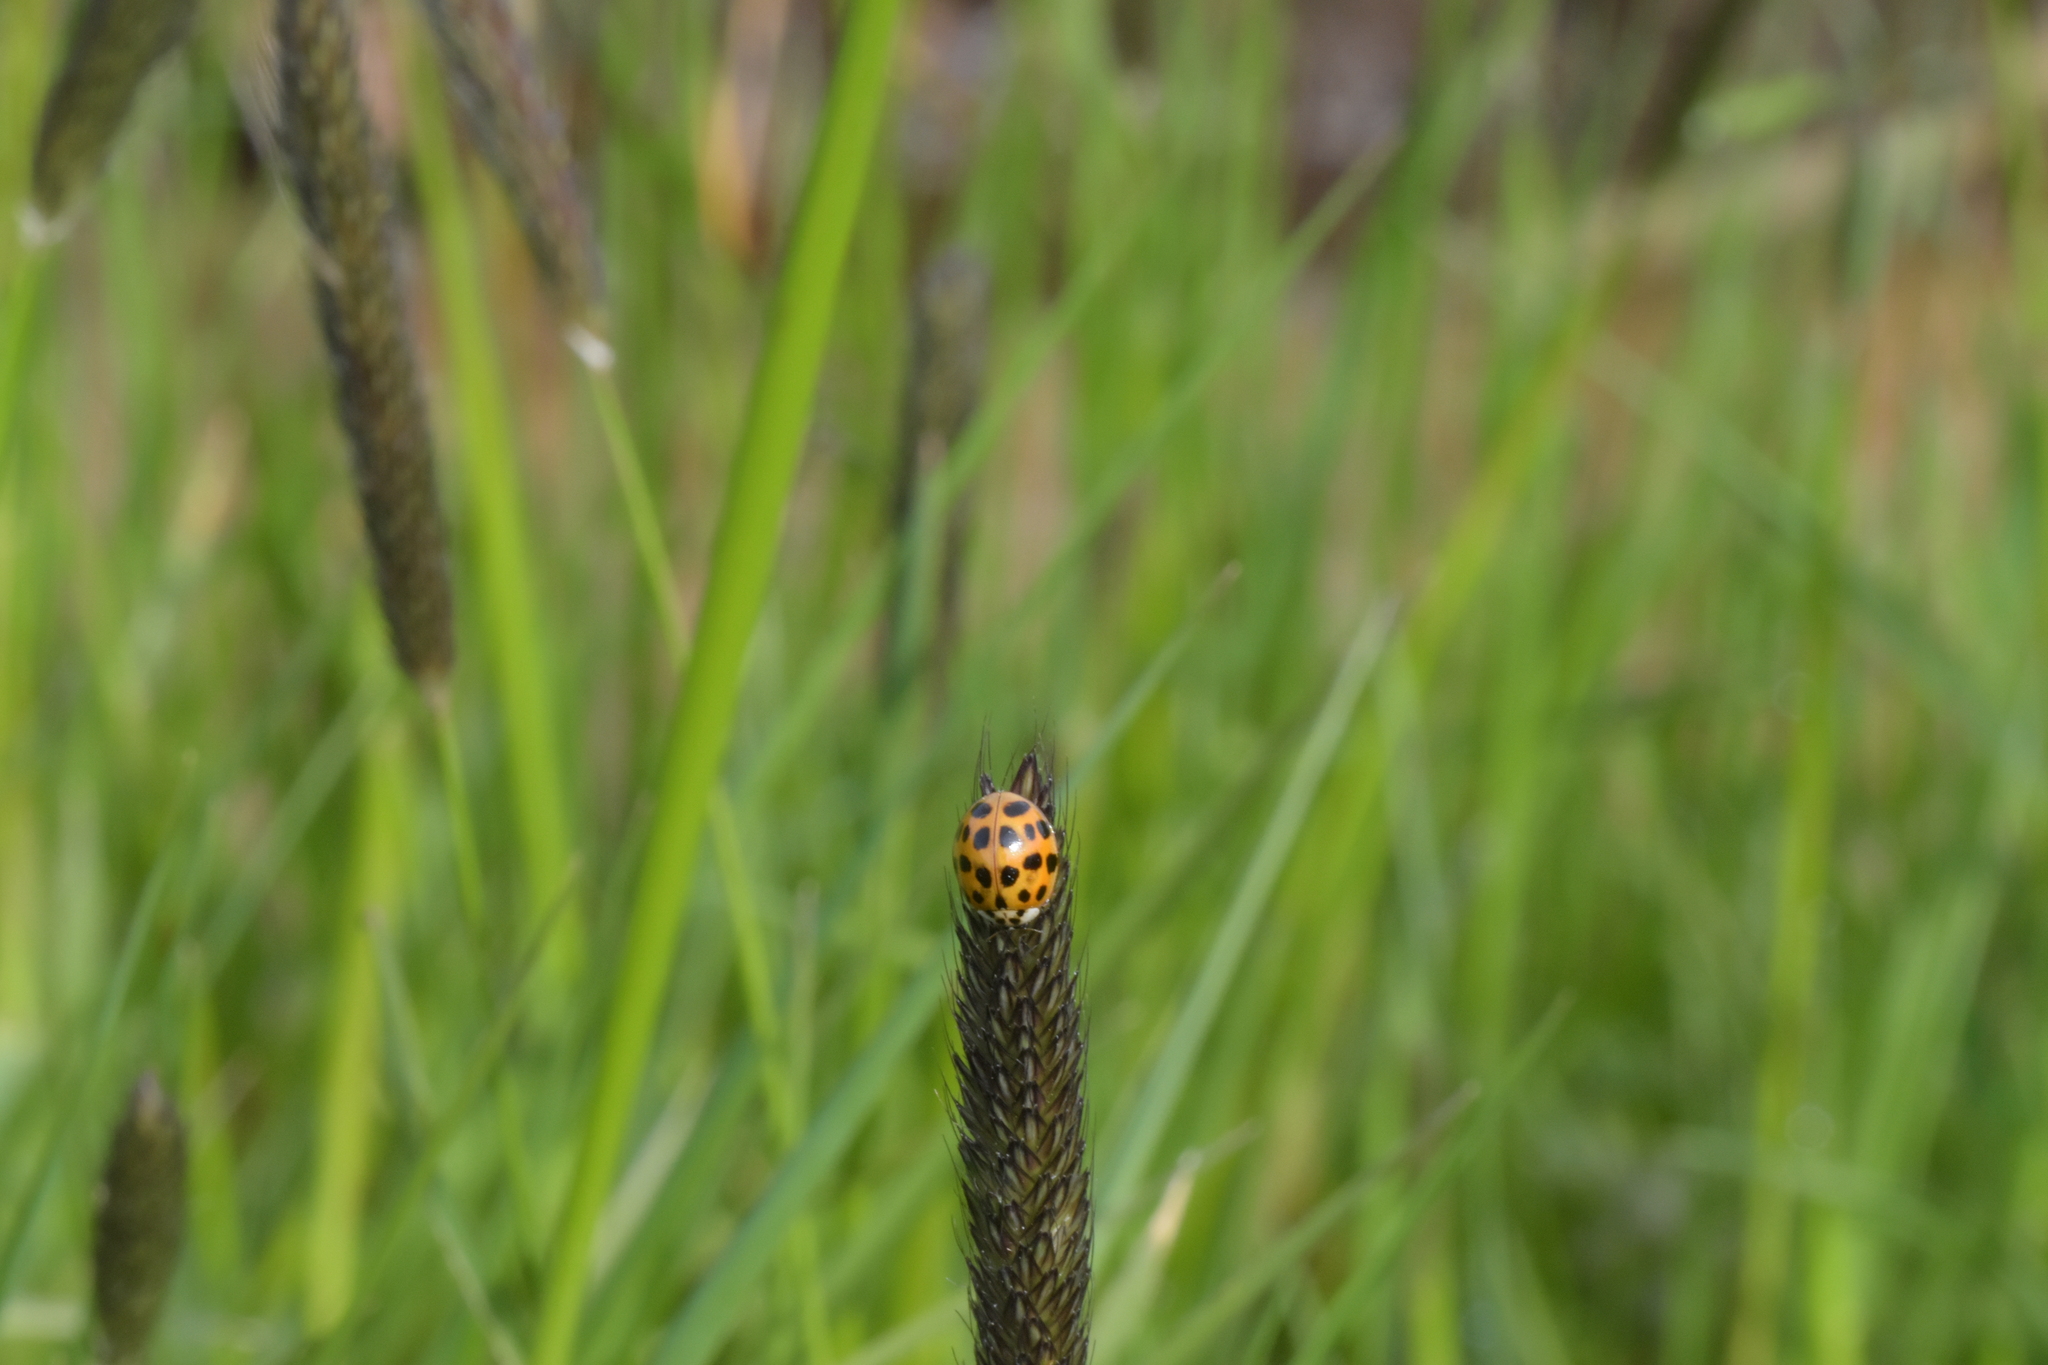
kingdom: Animalia
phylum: Arthropoda
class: Insecta
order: Coleoptera
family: Coccinellidae
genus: Harmonia
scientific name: Harmonia axyridis
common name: Harlequin ladybird
